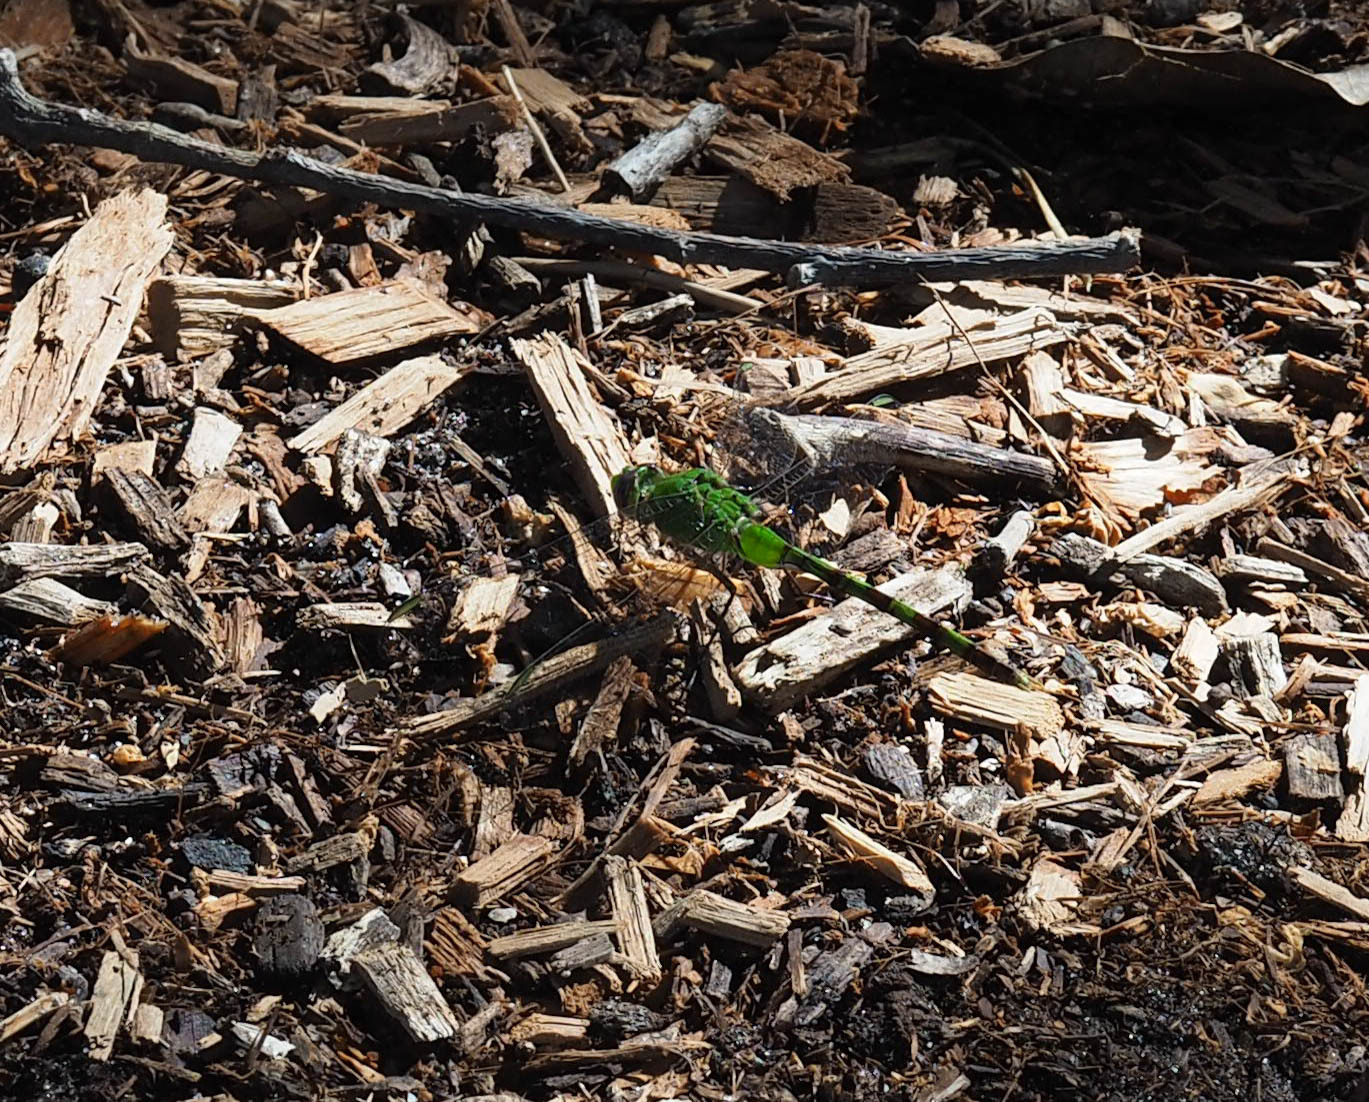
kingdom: Animalia
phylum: Arthropoda
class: Insecta
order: Odonata
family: Libellulidae
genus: Erythemis
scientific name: Erythemis vesiculosa
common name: Great pondhawk
